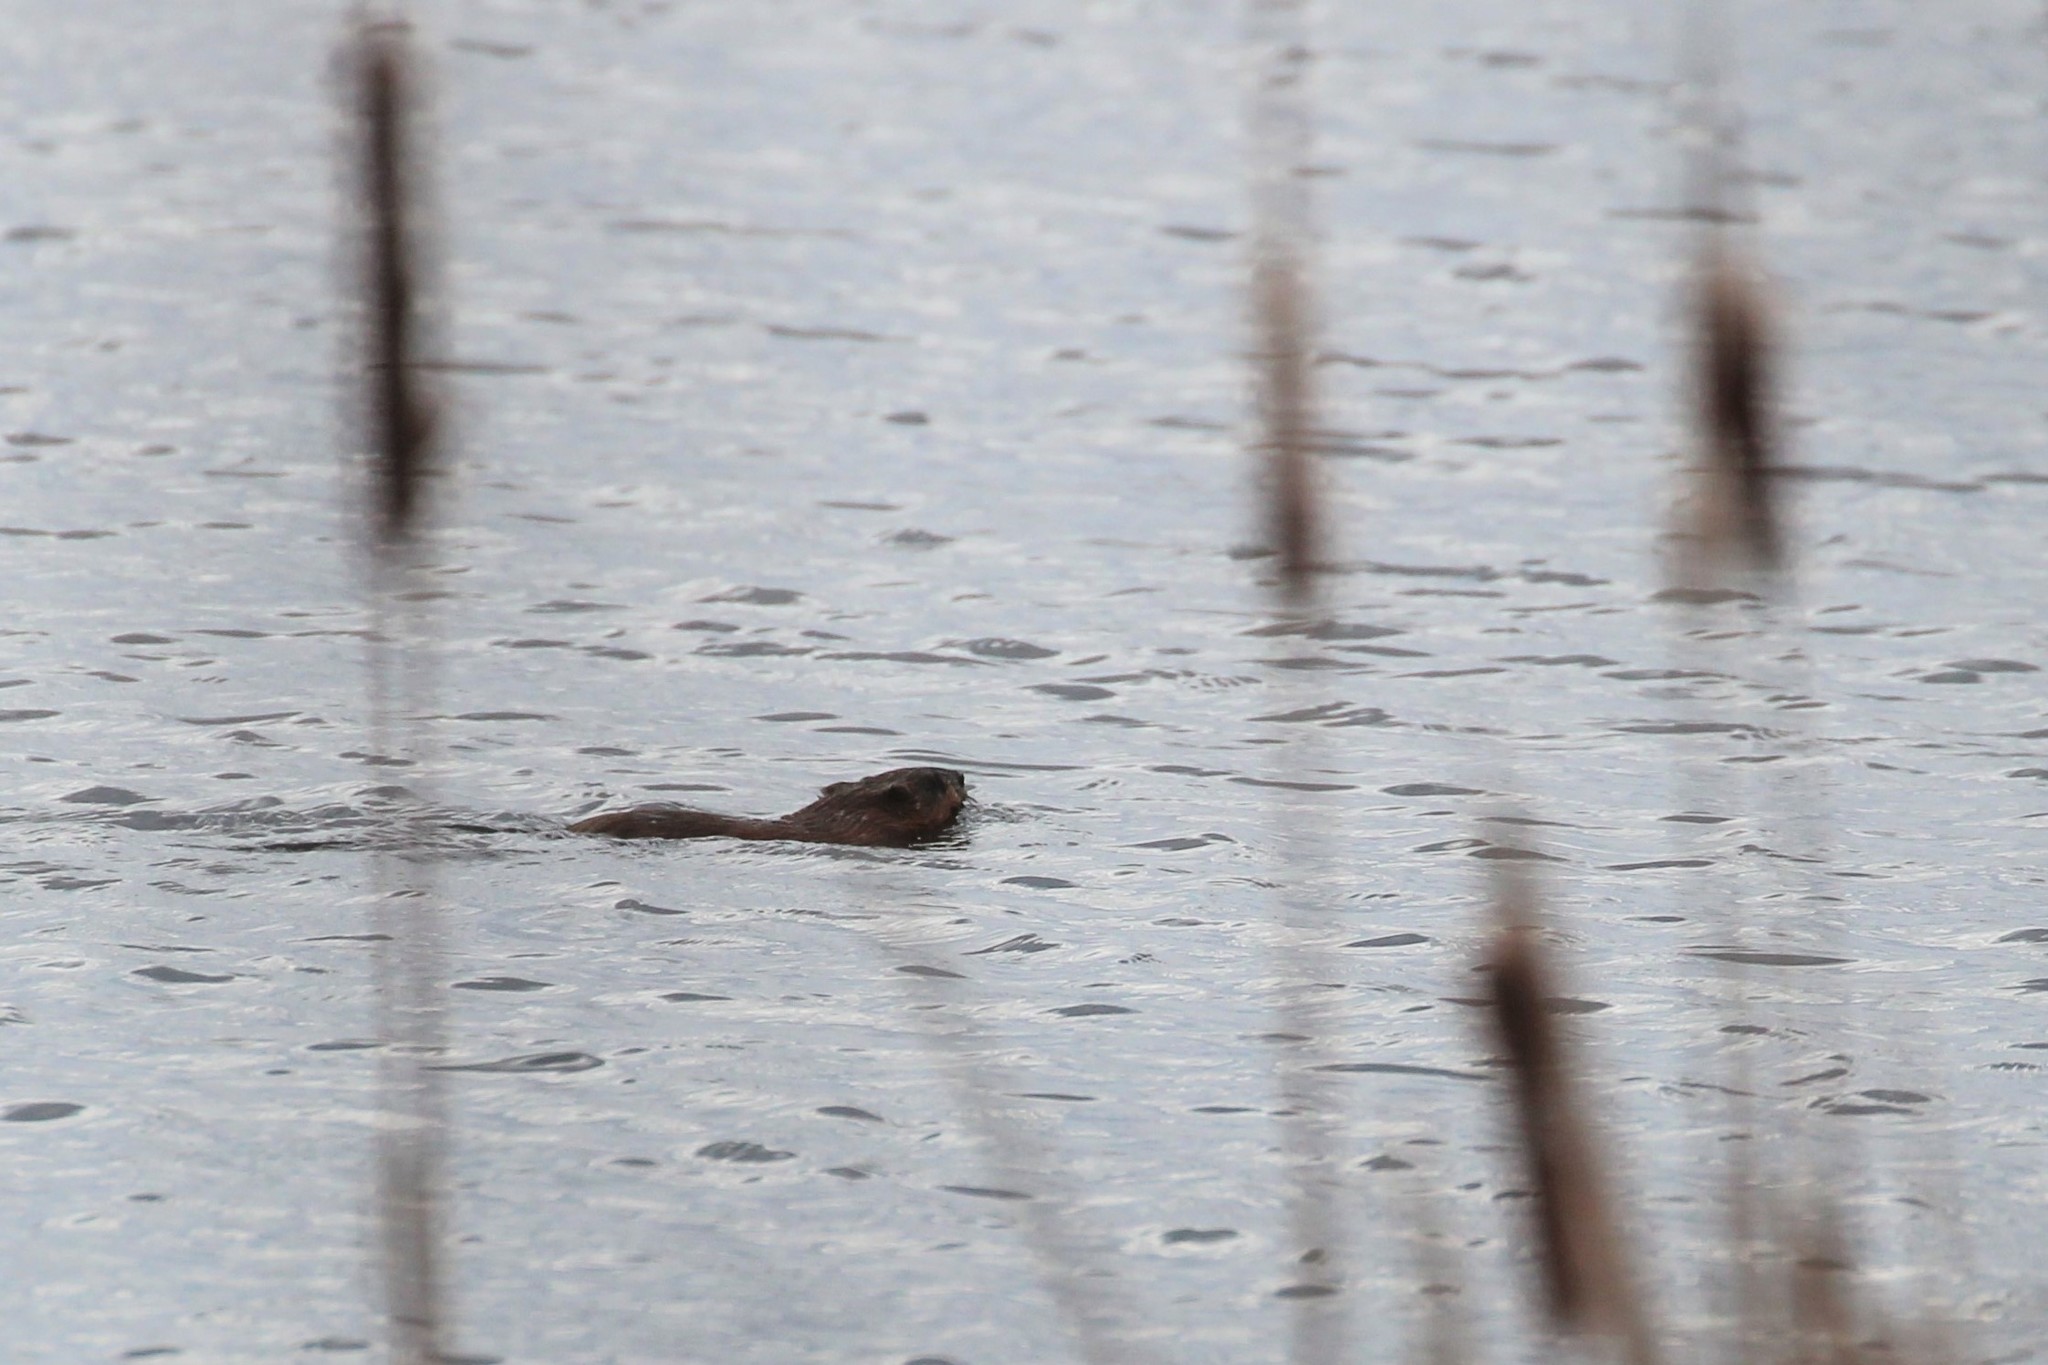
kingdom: Animalia
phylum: Chordata
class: Mammalia
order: Rodentia
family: Cricetidae
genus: Ondatra
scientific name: Ondatra zibethicus
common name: Muskrat
